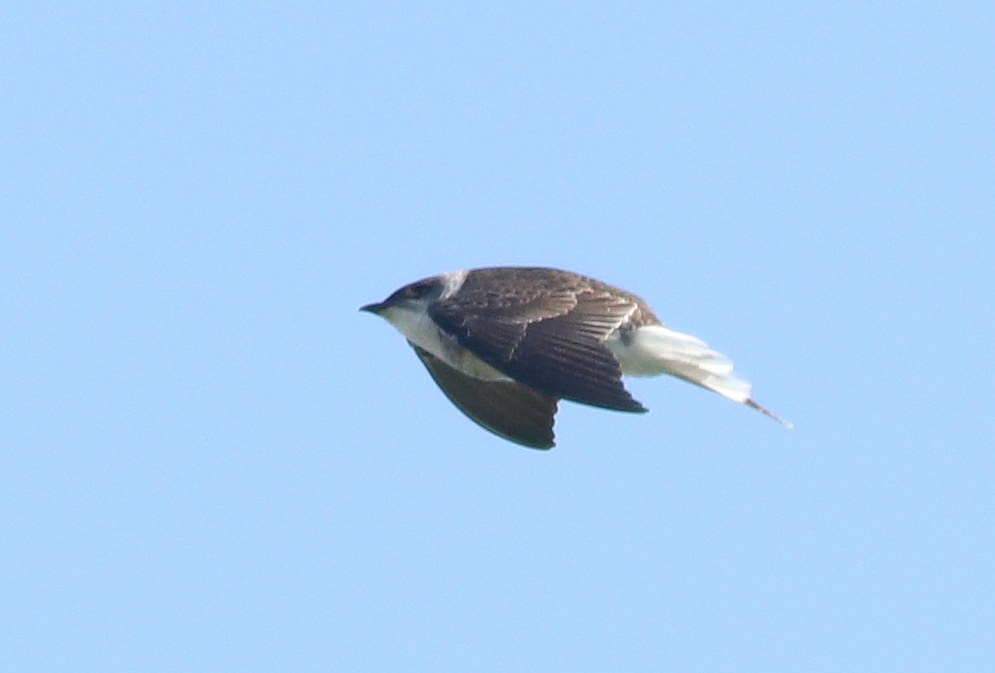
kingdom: Animalia
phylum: Chordata
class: Aves
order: Passeriformes
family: Hirundinidae
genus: Progne
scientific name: Progne tapera
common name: Brown-chested martin
